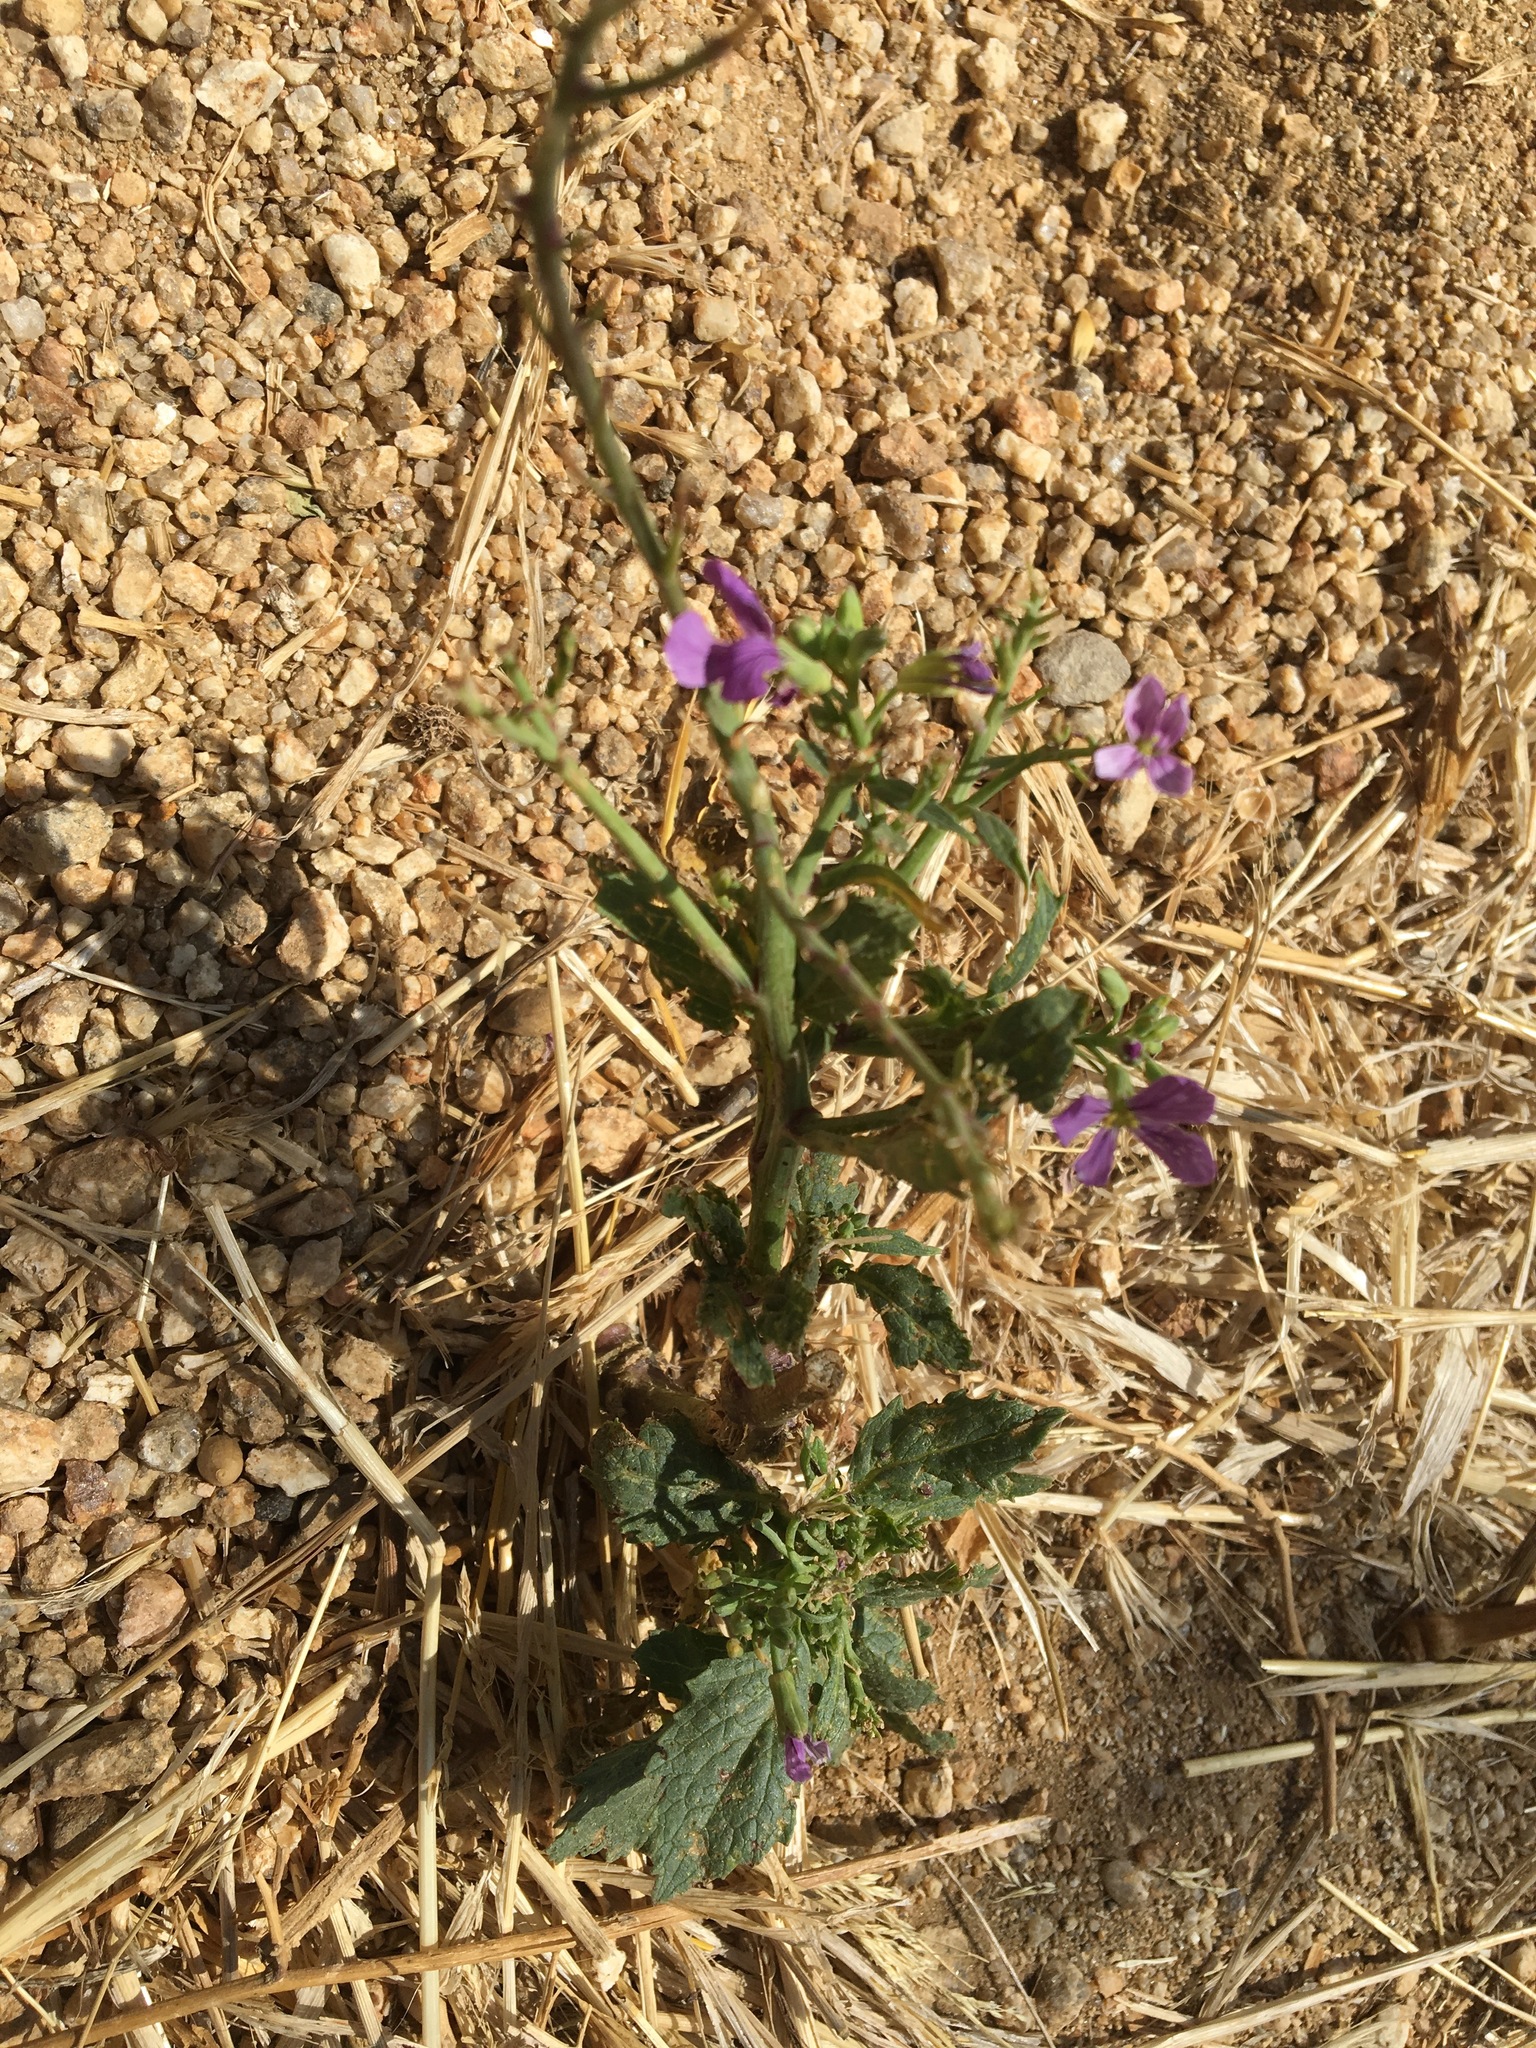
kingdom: Plantae
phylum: Tracheophyta
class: Magnoliopsida
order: Brassicales
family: Brassicaceae
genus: Raphanus
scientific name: Raphanus sativus
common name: Cultivated radish
